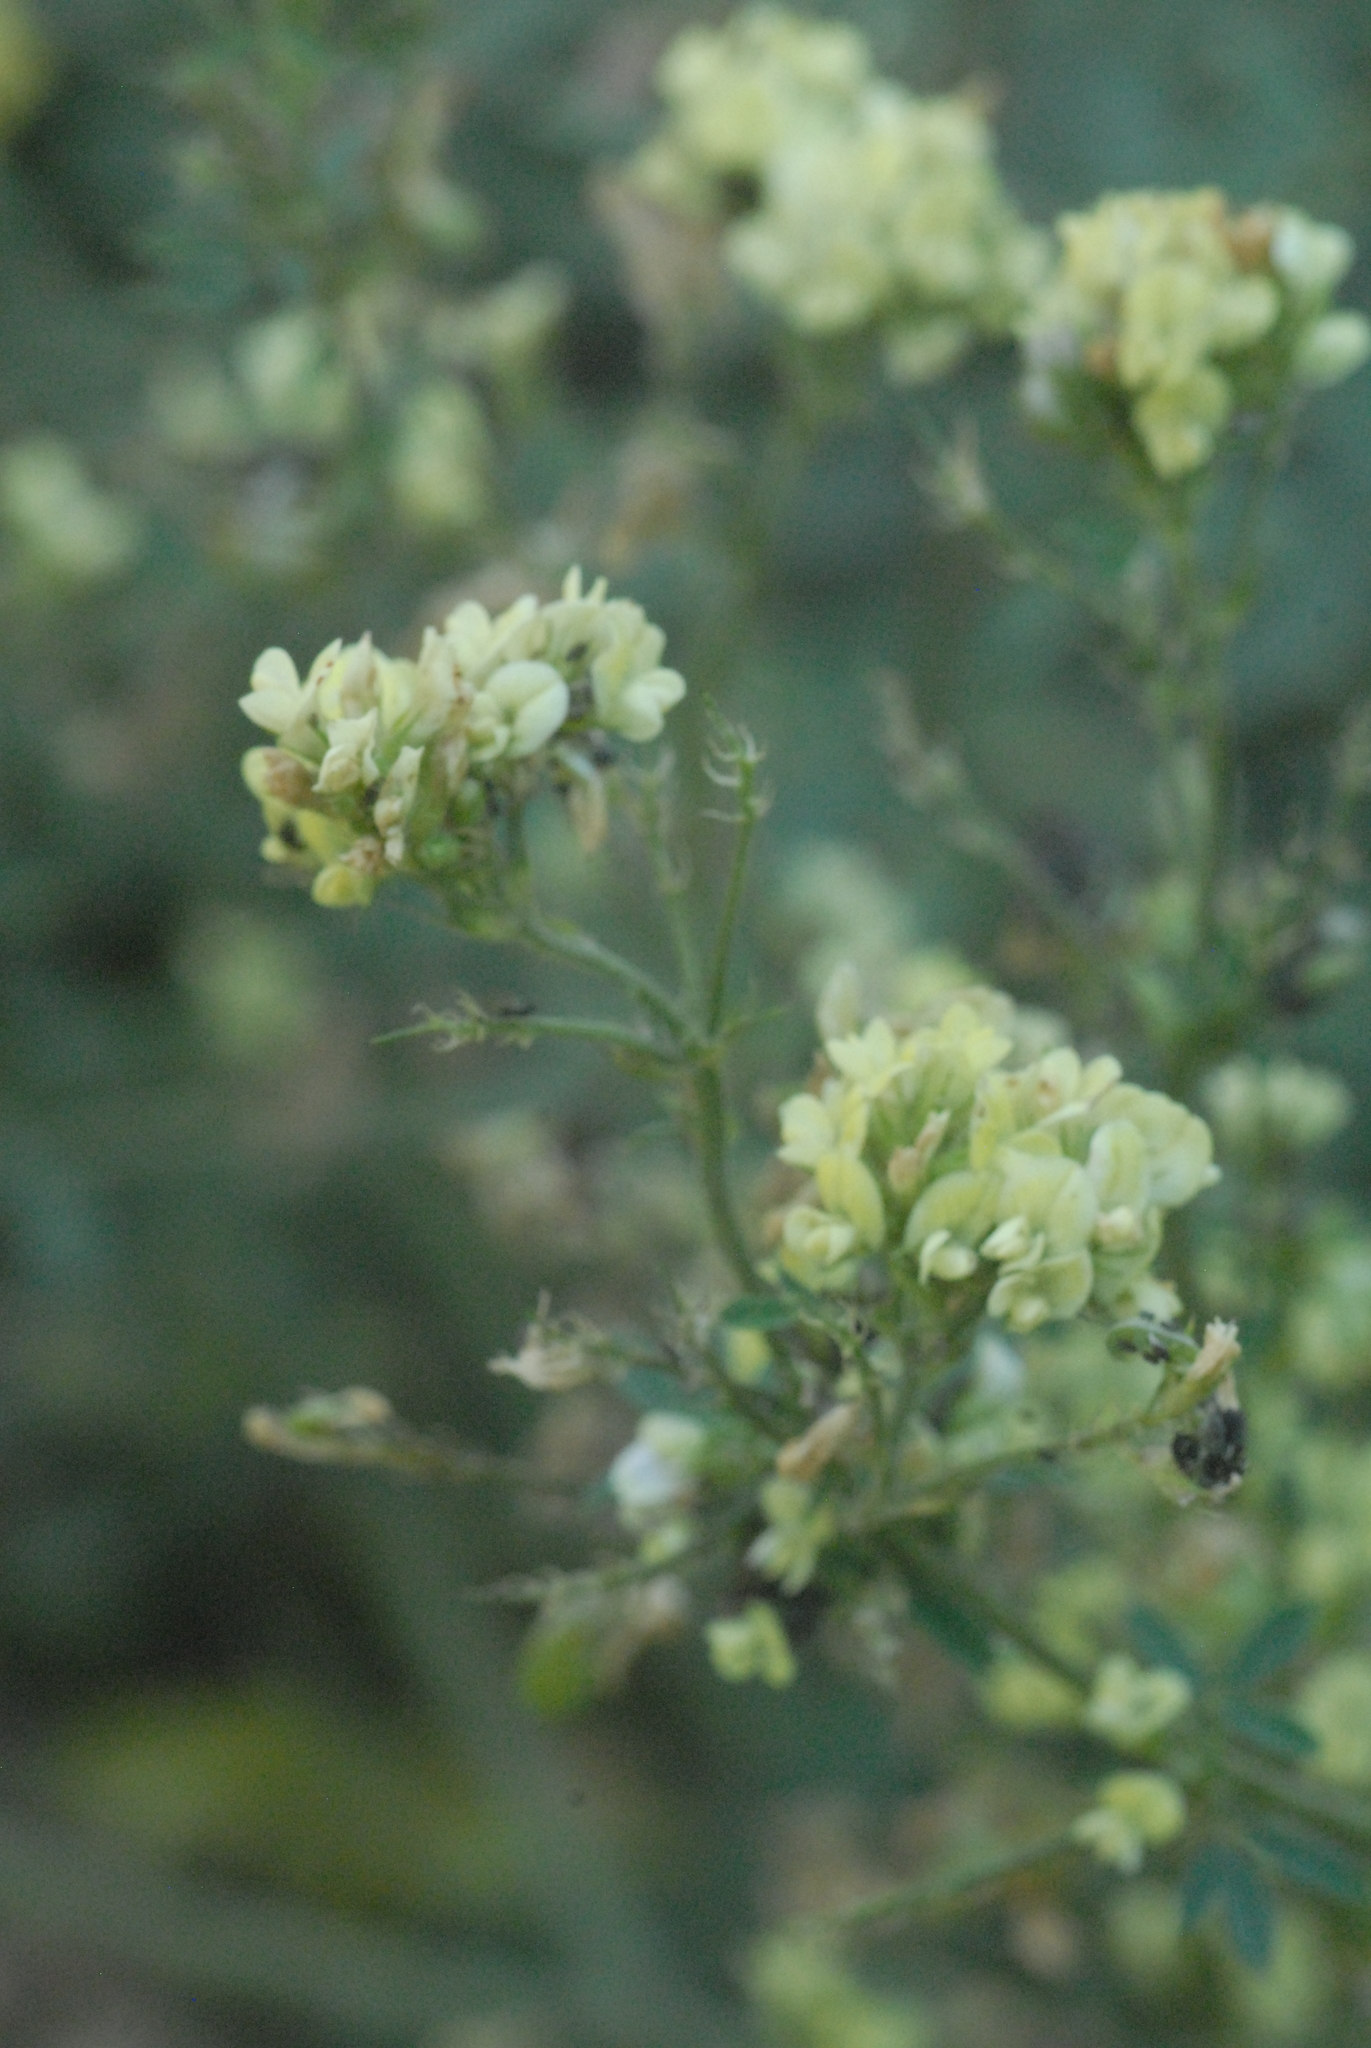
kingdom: Plantae
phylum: Tracheophyta
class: Magnoliopsida
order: Fabales
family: Fabaceae
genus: Medicago
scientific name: Medicago varia
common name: Sand lucerne
